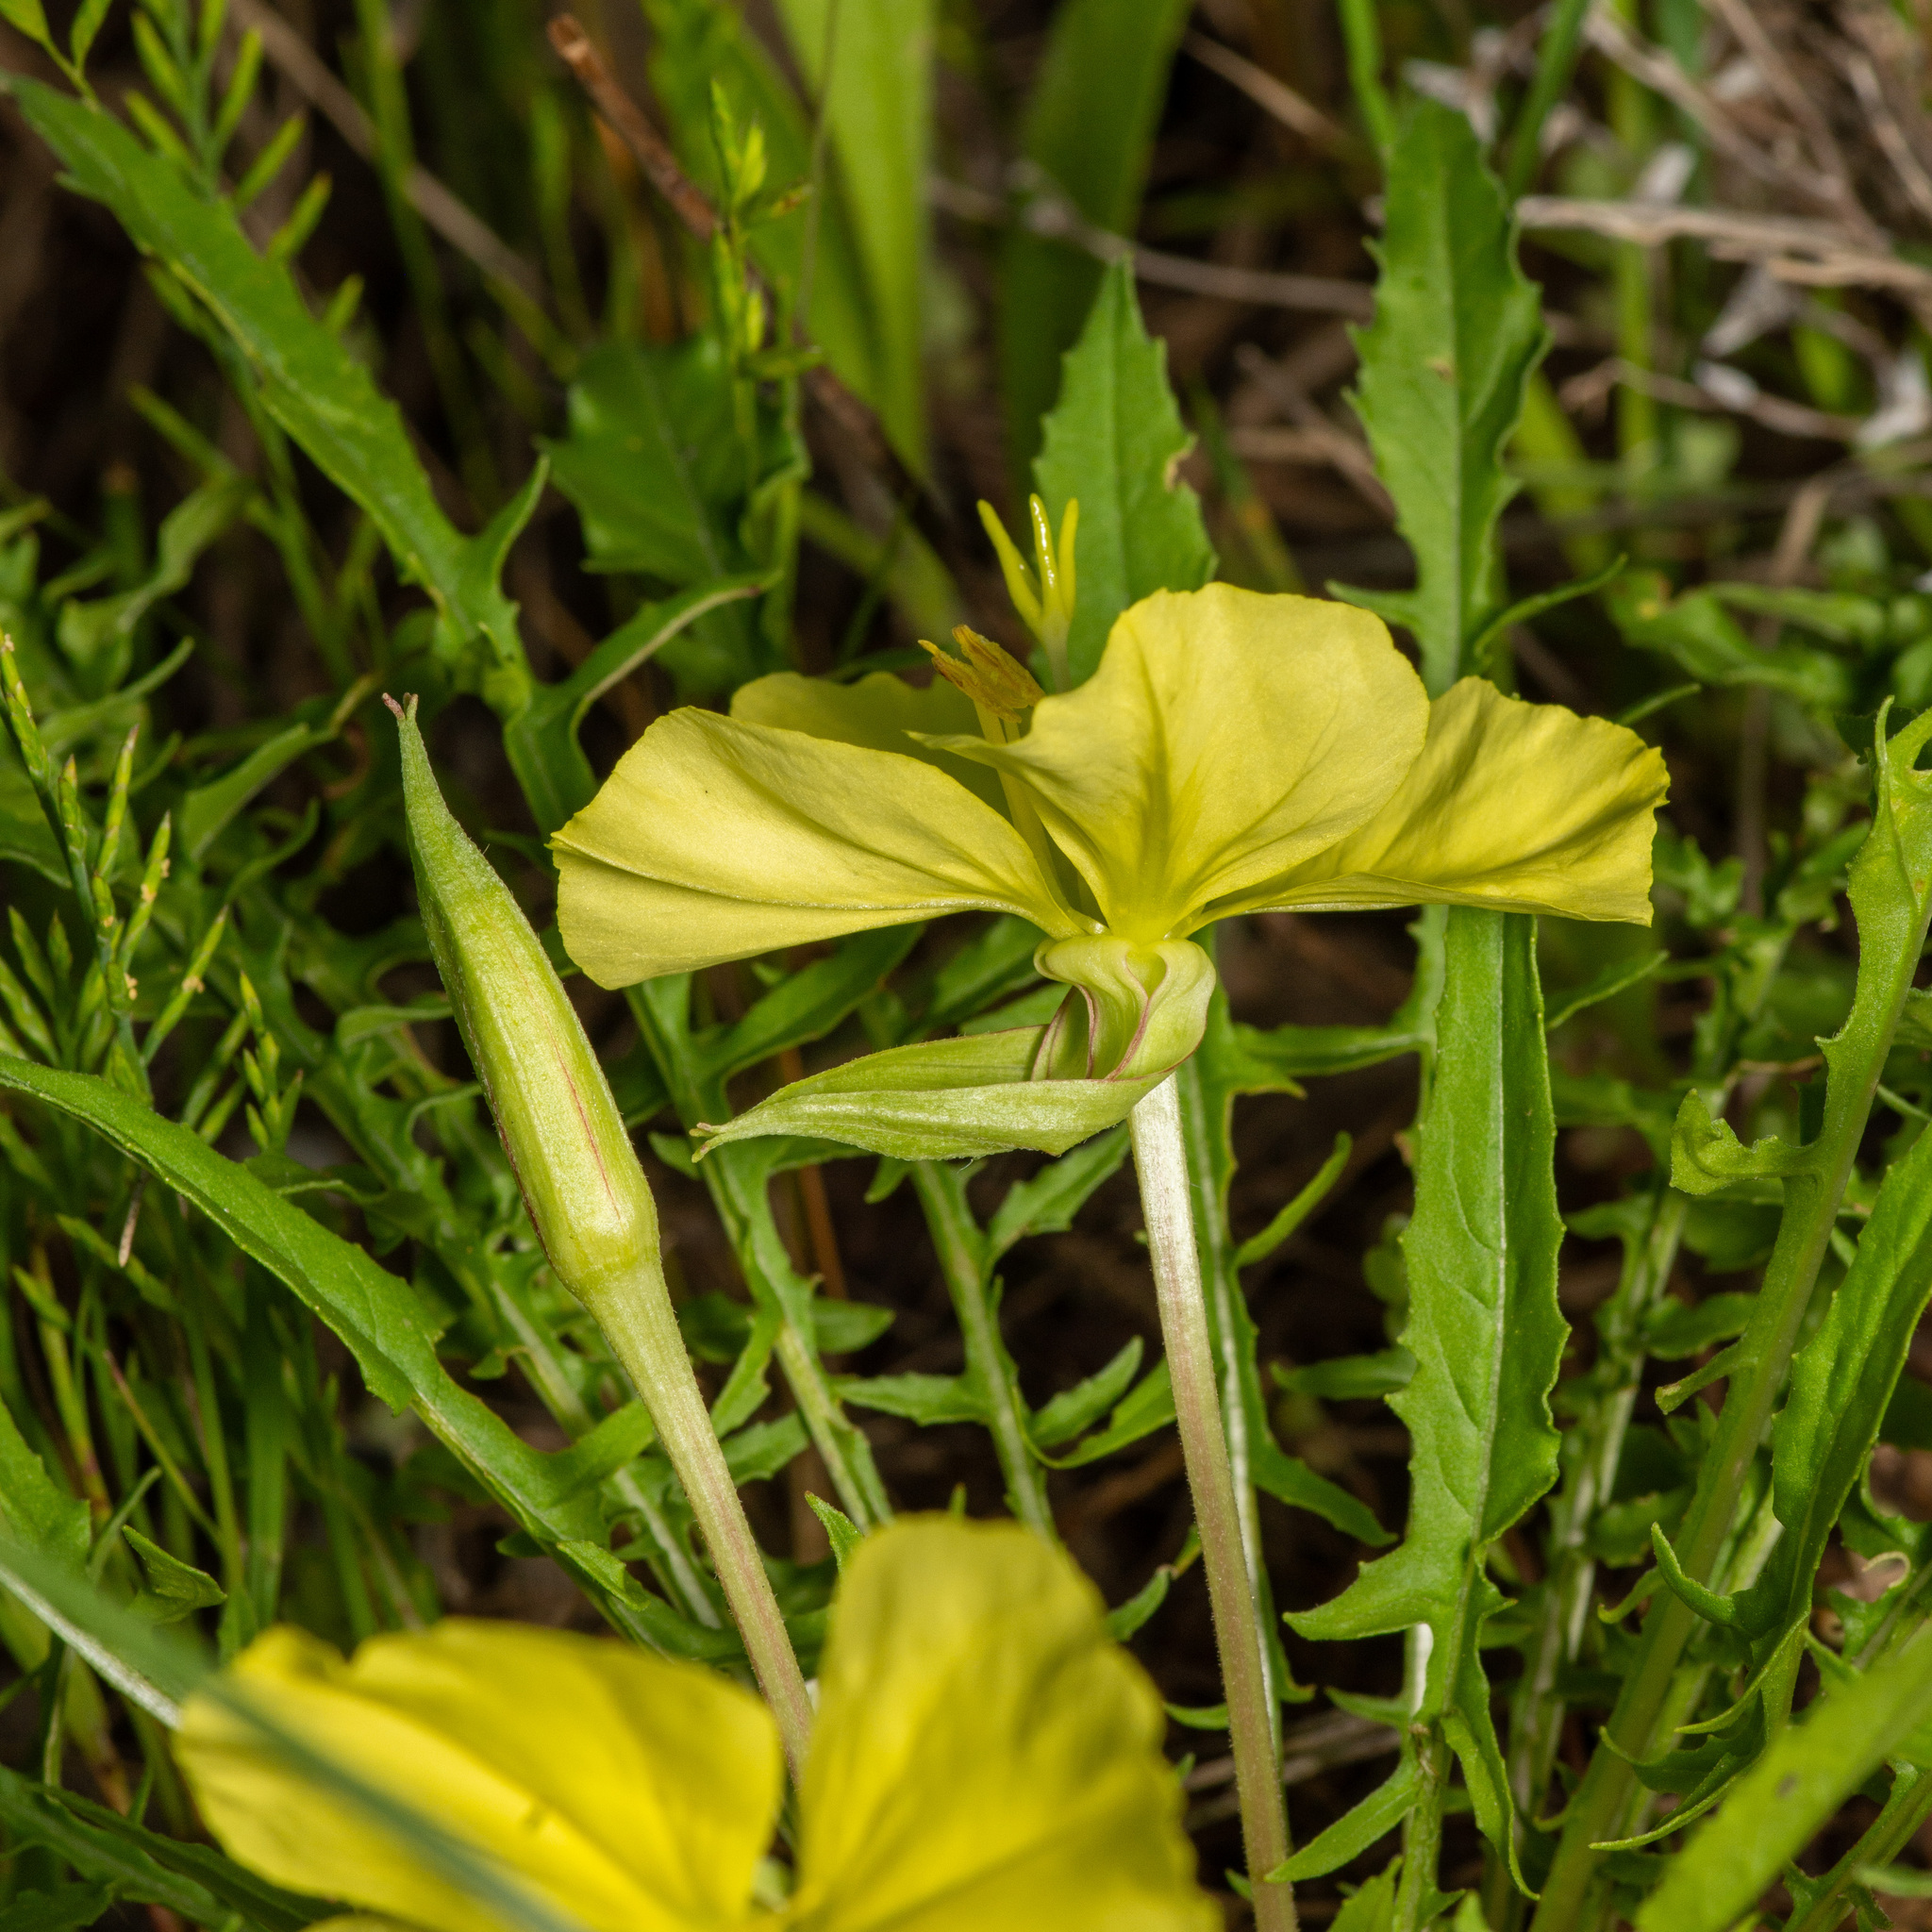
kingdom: Plantae
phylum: Tracheophyta
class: Magnoliopsida
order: Myrtales
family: Onagraceae
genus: Oenothera
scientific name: Oenothera triloba
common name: Sessile evening-primrose
